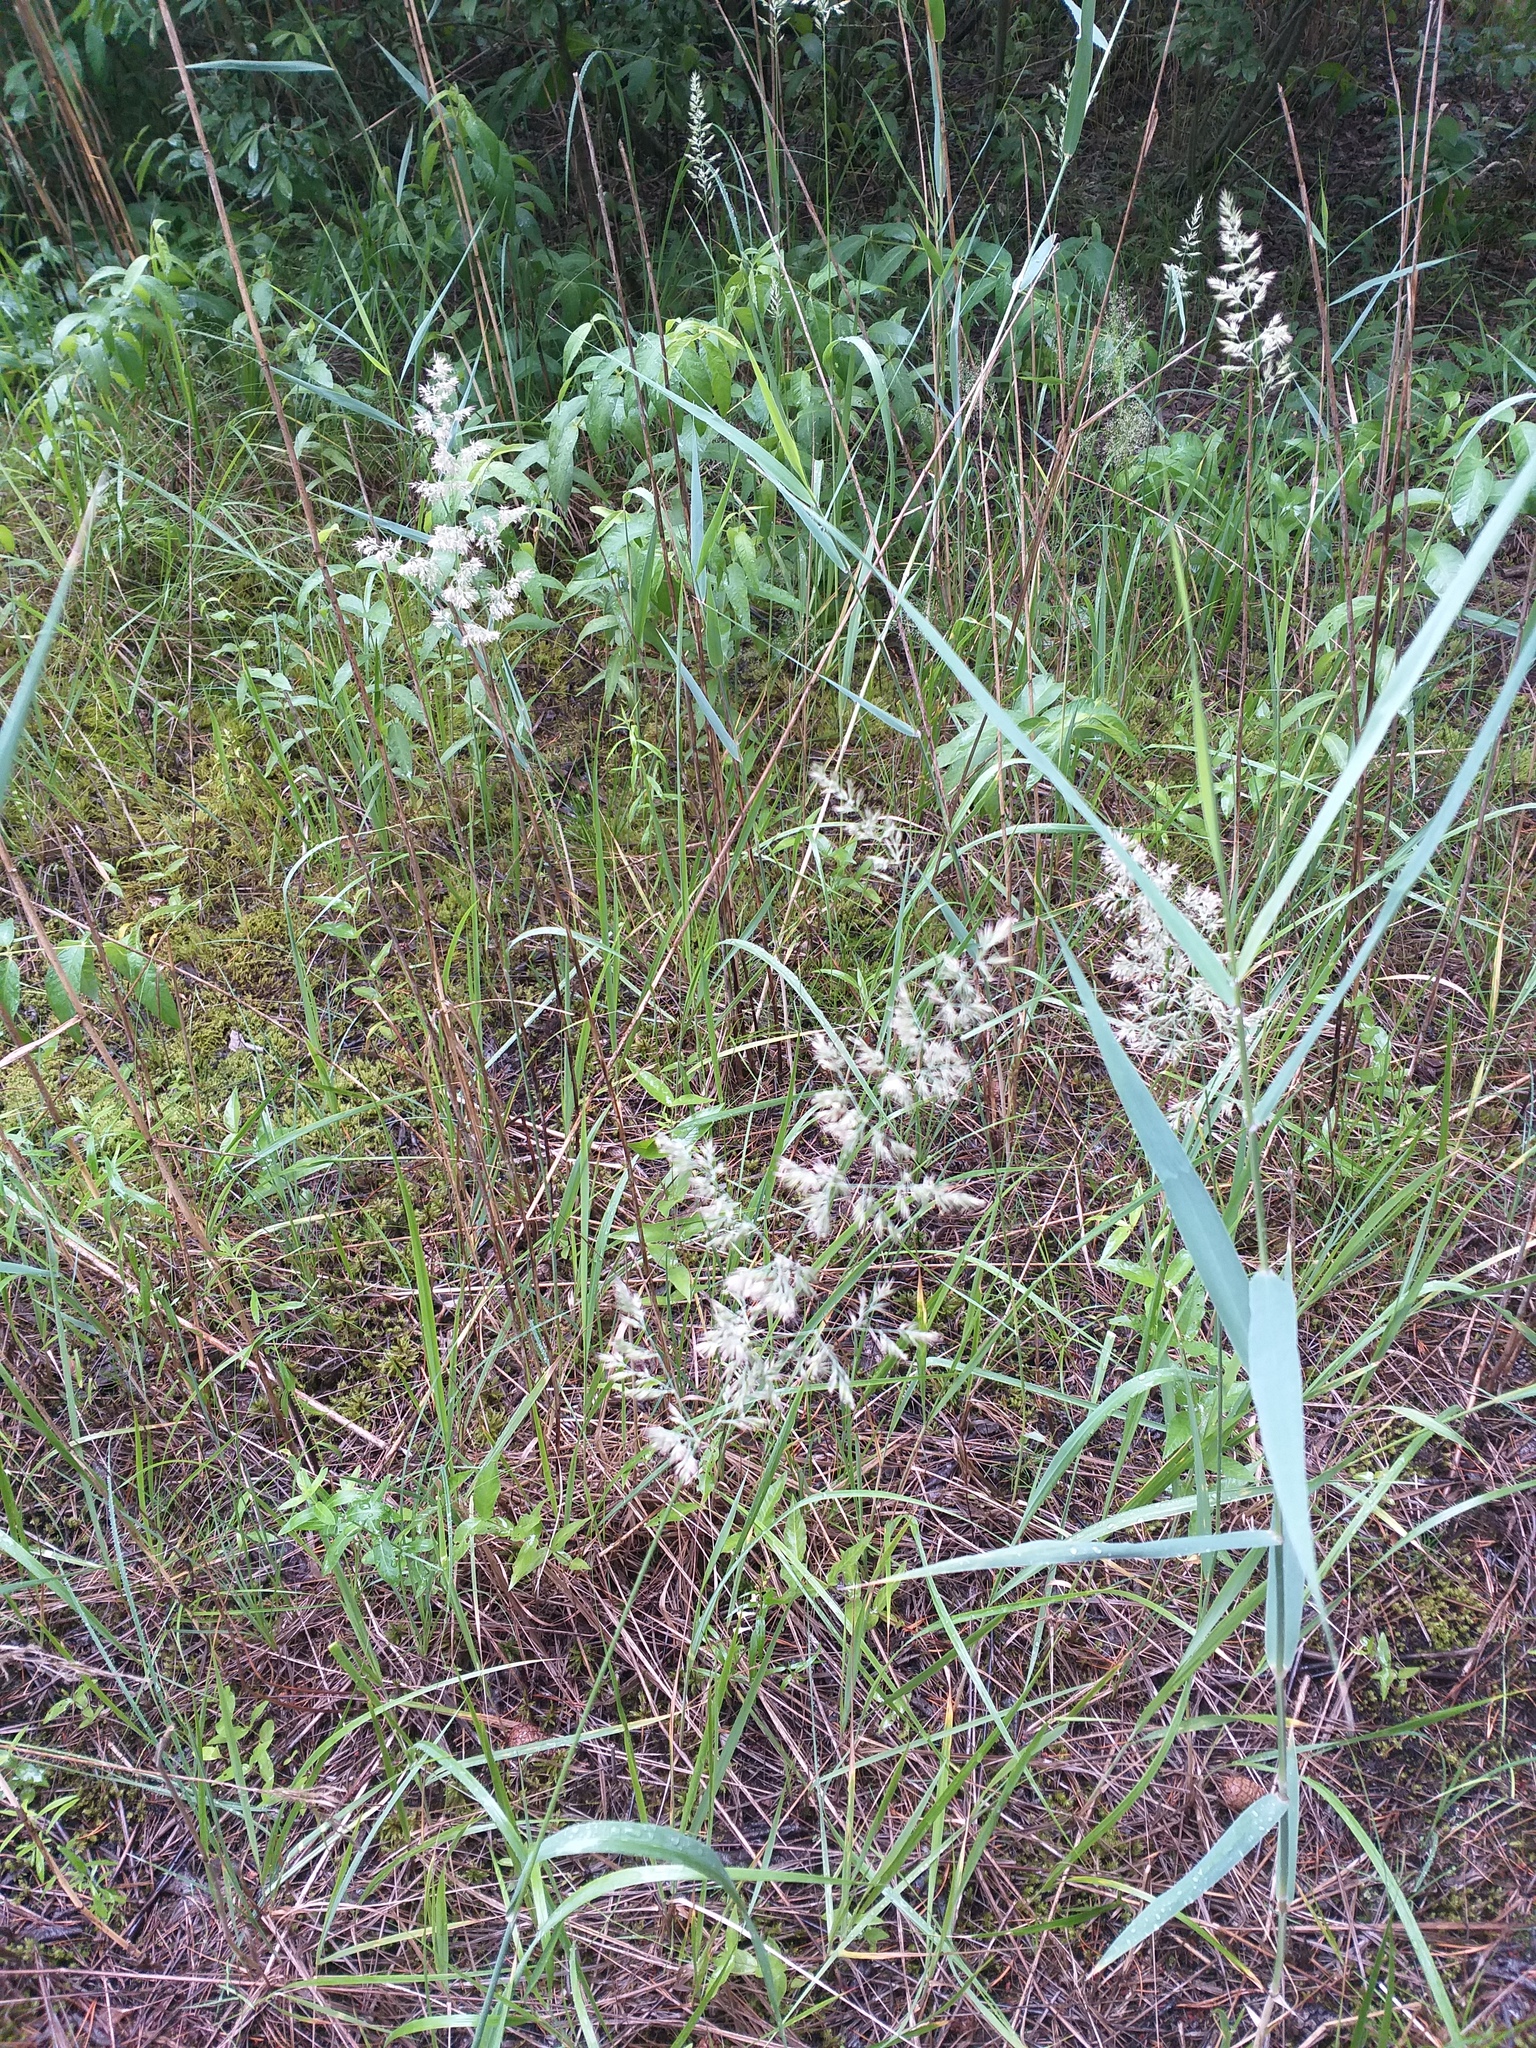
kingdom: Plantae
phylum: Tracheophyta
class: Liliopsida
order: Poales
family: Poaceae
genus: Calamagrostis
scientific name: Calamagrostis epigejos
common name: Wood small-reed
